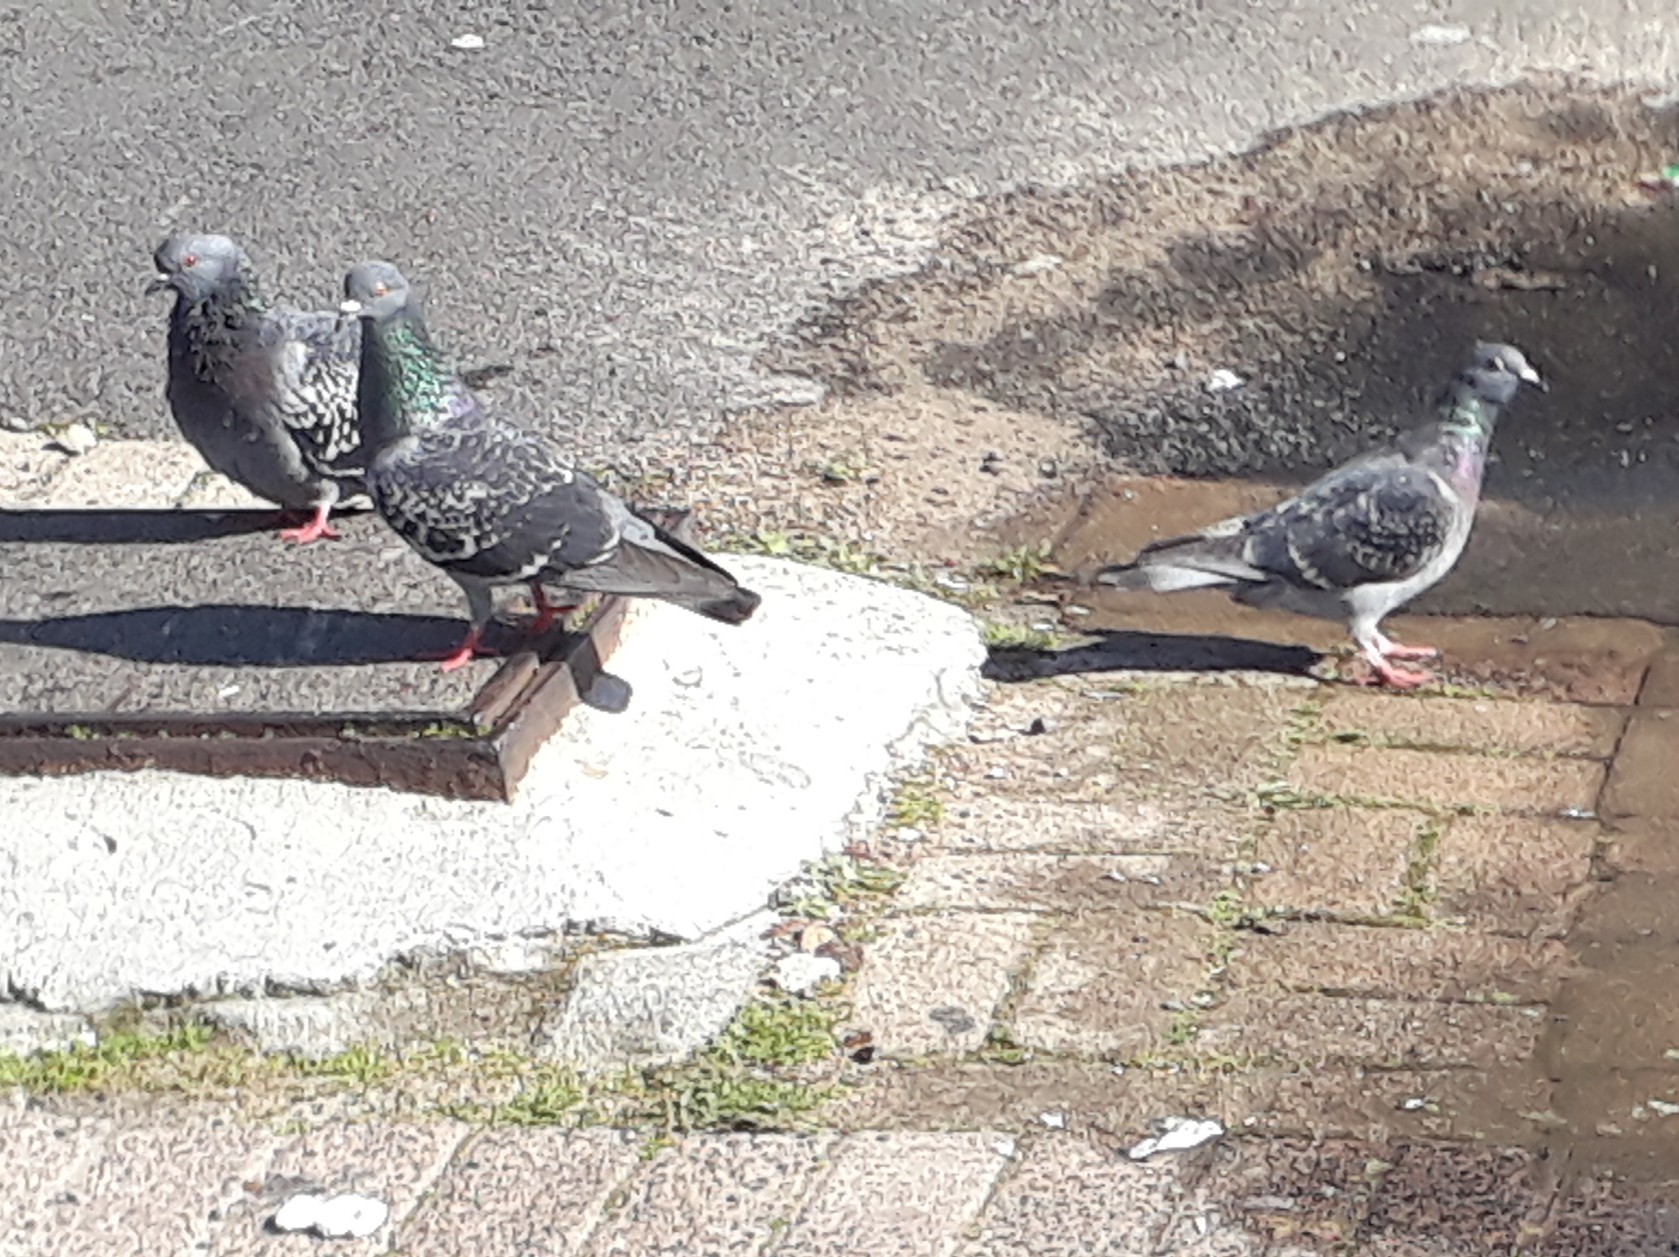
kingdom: Animalia
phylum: Chordata
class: Aves
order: Columbiformes
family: Columbidae
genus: Columba
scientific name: Columba livia
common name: Rock pigeon
